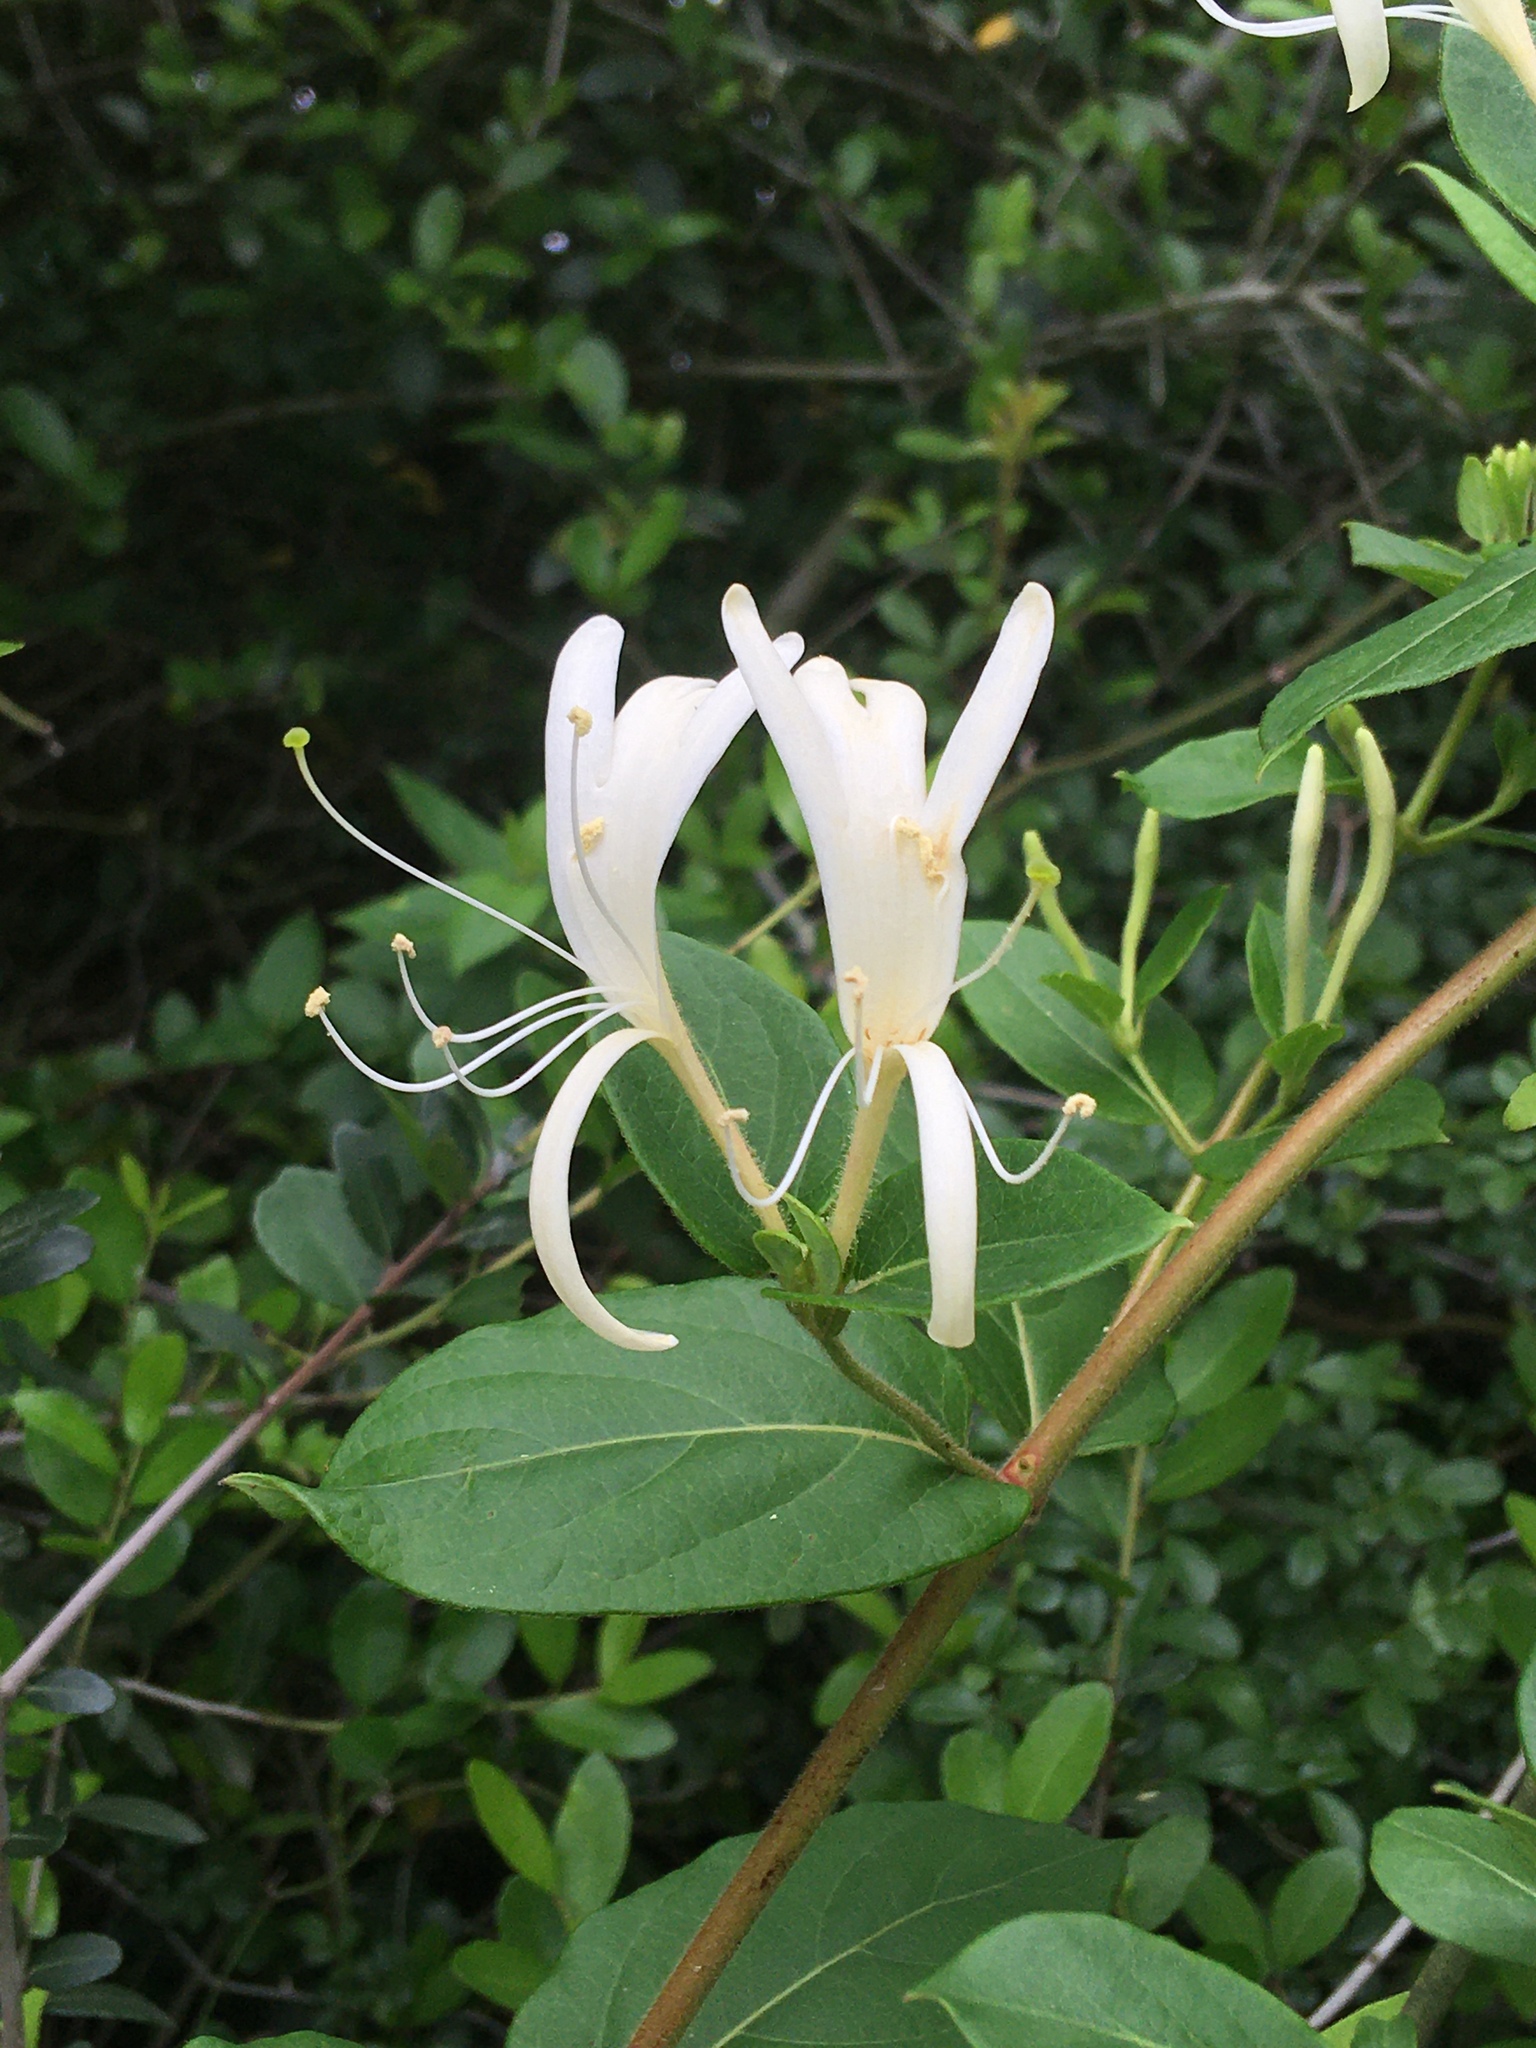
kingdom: Plantae
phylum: Tracheophyta
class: Magnoliopsida
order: Dipsacales
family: Caprifoliaceae
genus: Lonicera
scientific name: Lonicera japonica
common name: Japanese honeysuckle
